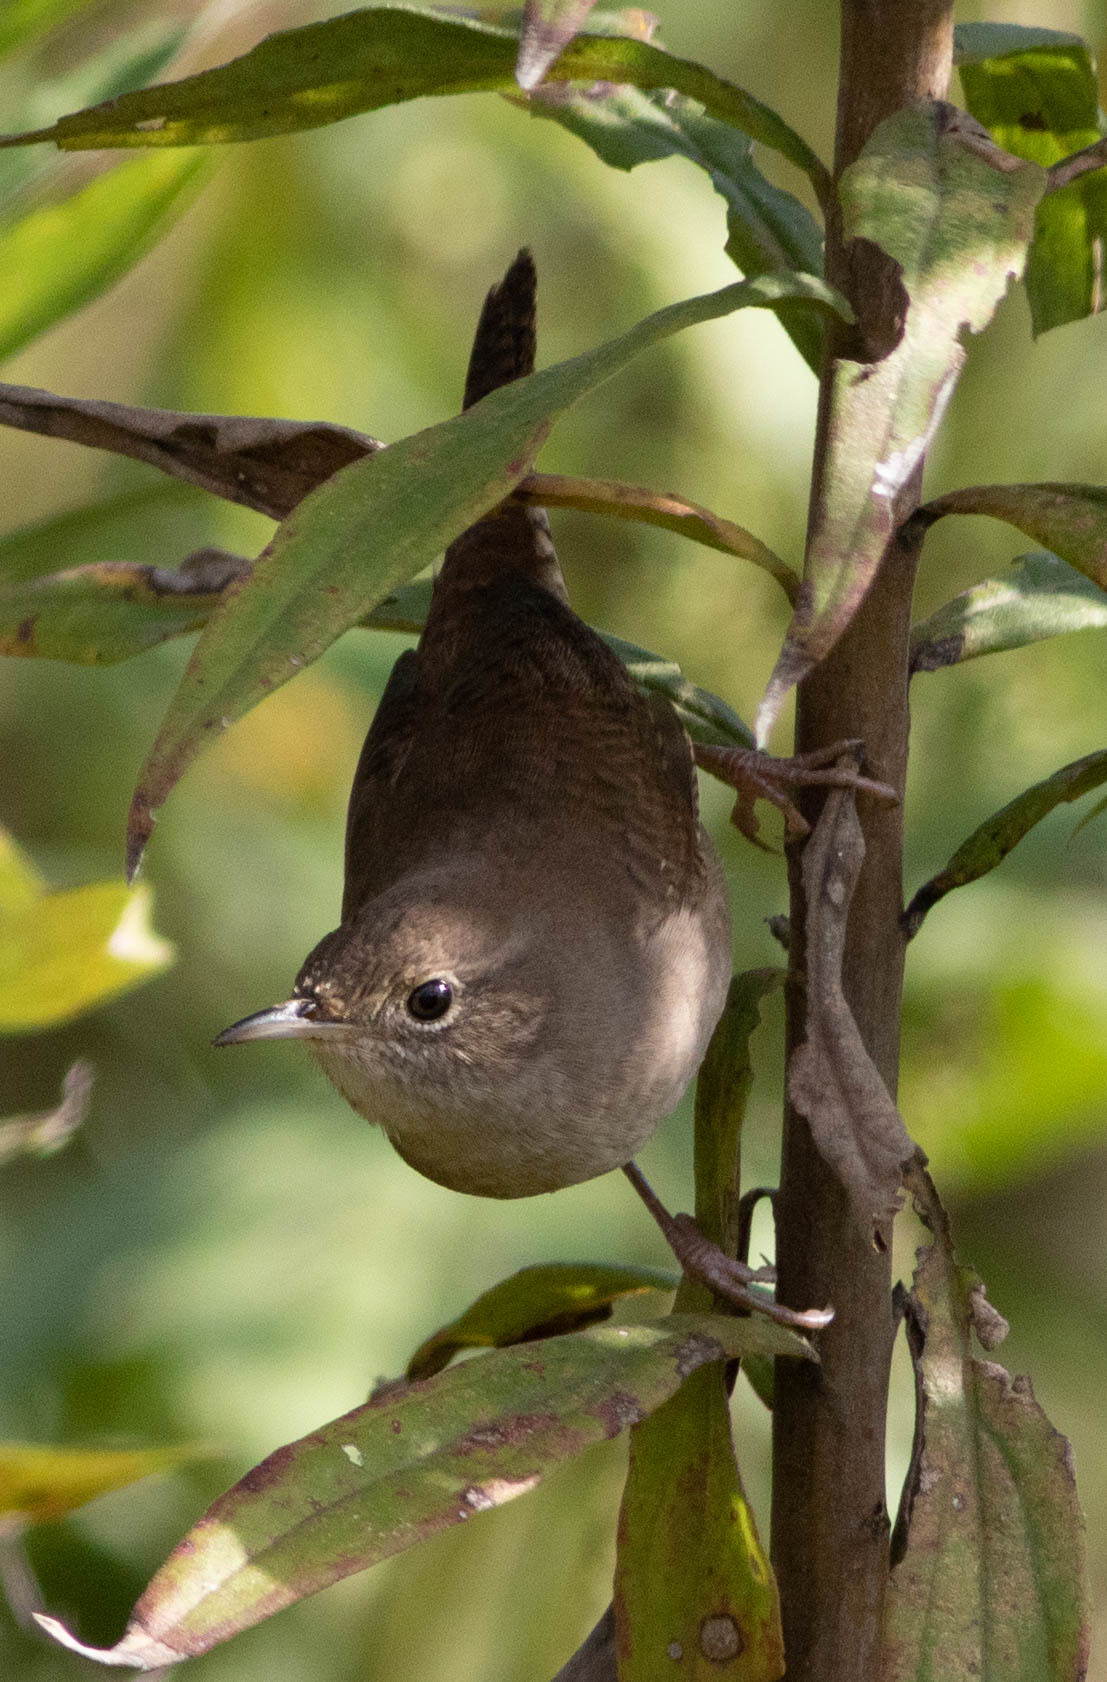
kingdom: Animalia
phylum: Chordata
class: Aves
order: Passeriformes
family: Troglodytidae
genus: Troglodytes
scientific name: Troglodytes aedon
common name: House wren
